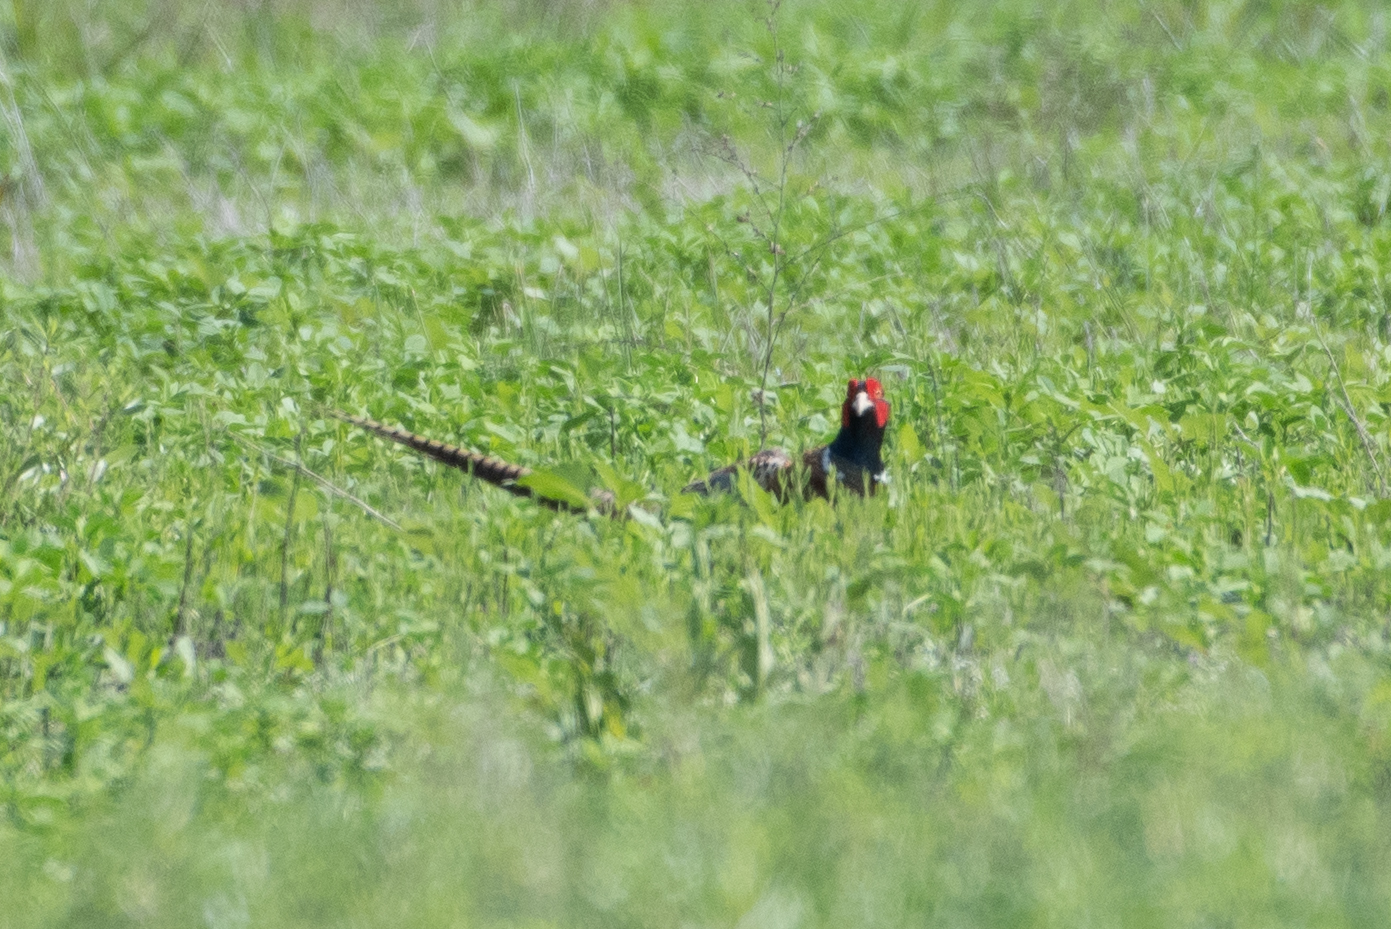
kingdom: Animalia
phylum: Chordata
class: Aves
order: Galliformes
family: Phasianidae
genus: Phasianus
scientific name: Phasianus colchicus
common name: Common pheasant
